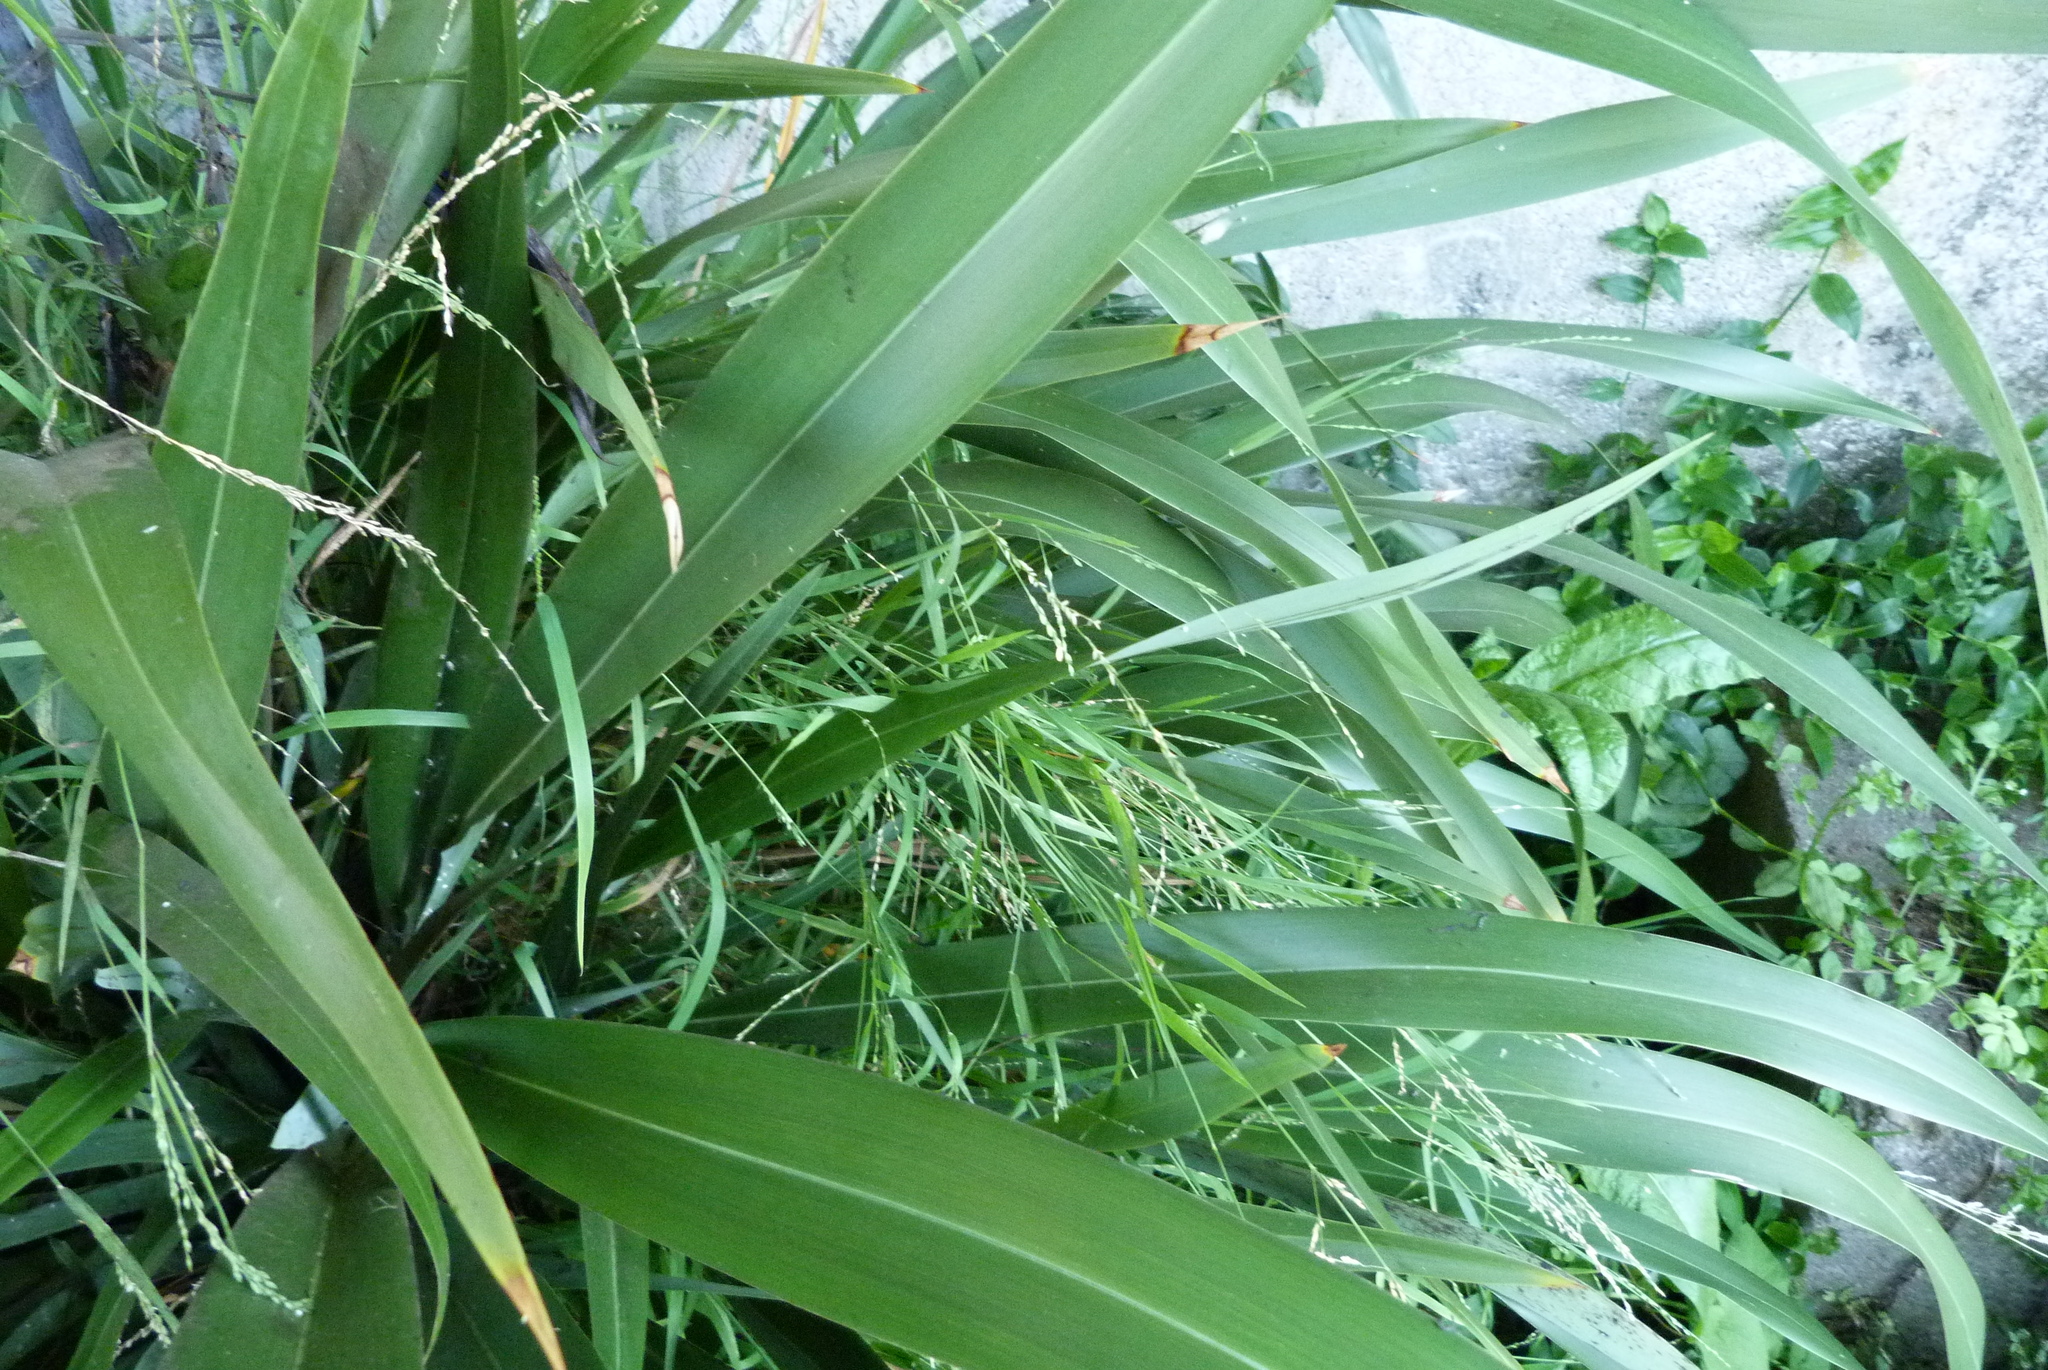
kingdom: Plantae
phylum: Tracheophyta
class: Liliopsida
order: Poales
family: Poaceae
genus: Ehrharta
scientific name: Ehrharta erecta
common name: Panic veldtgrass
